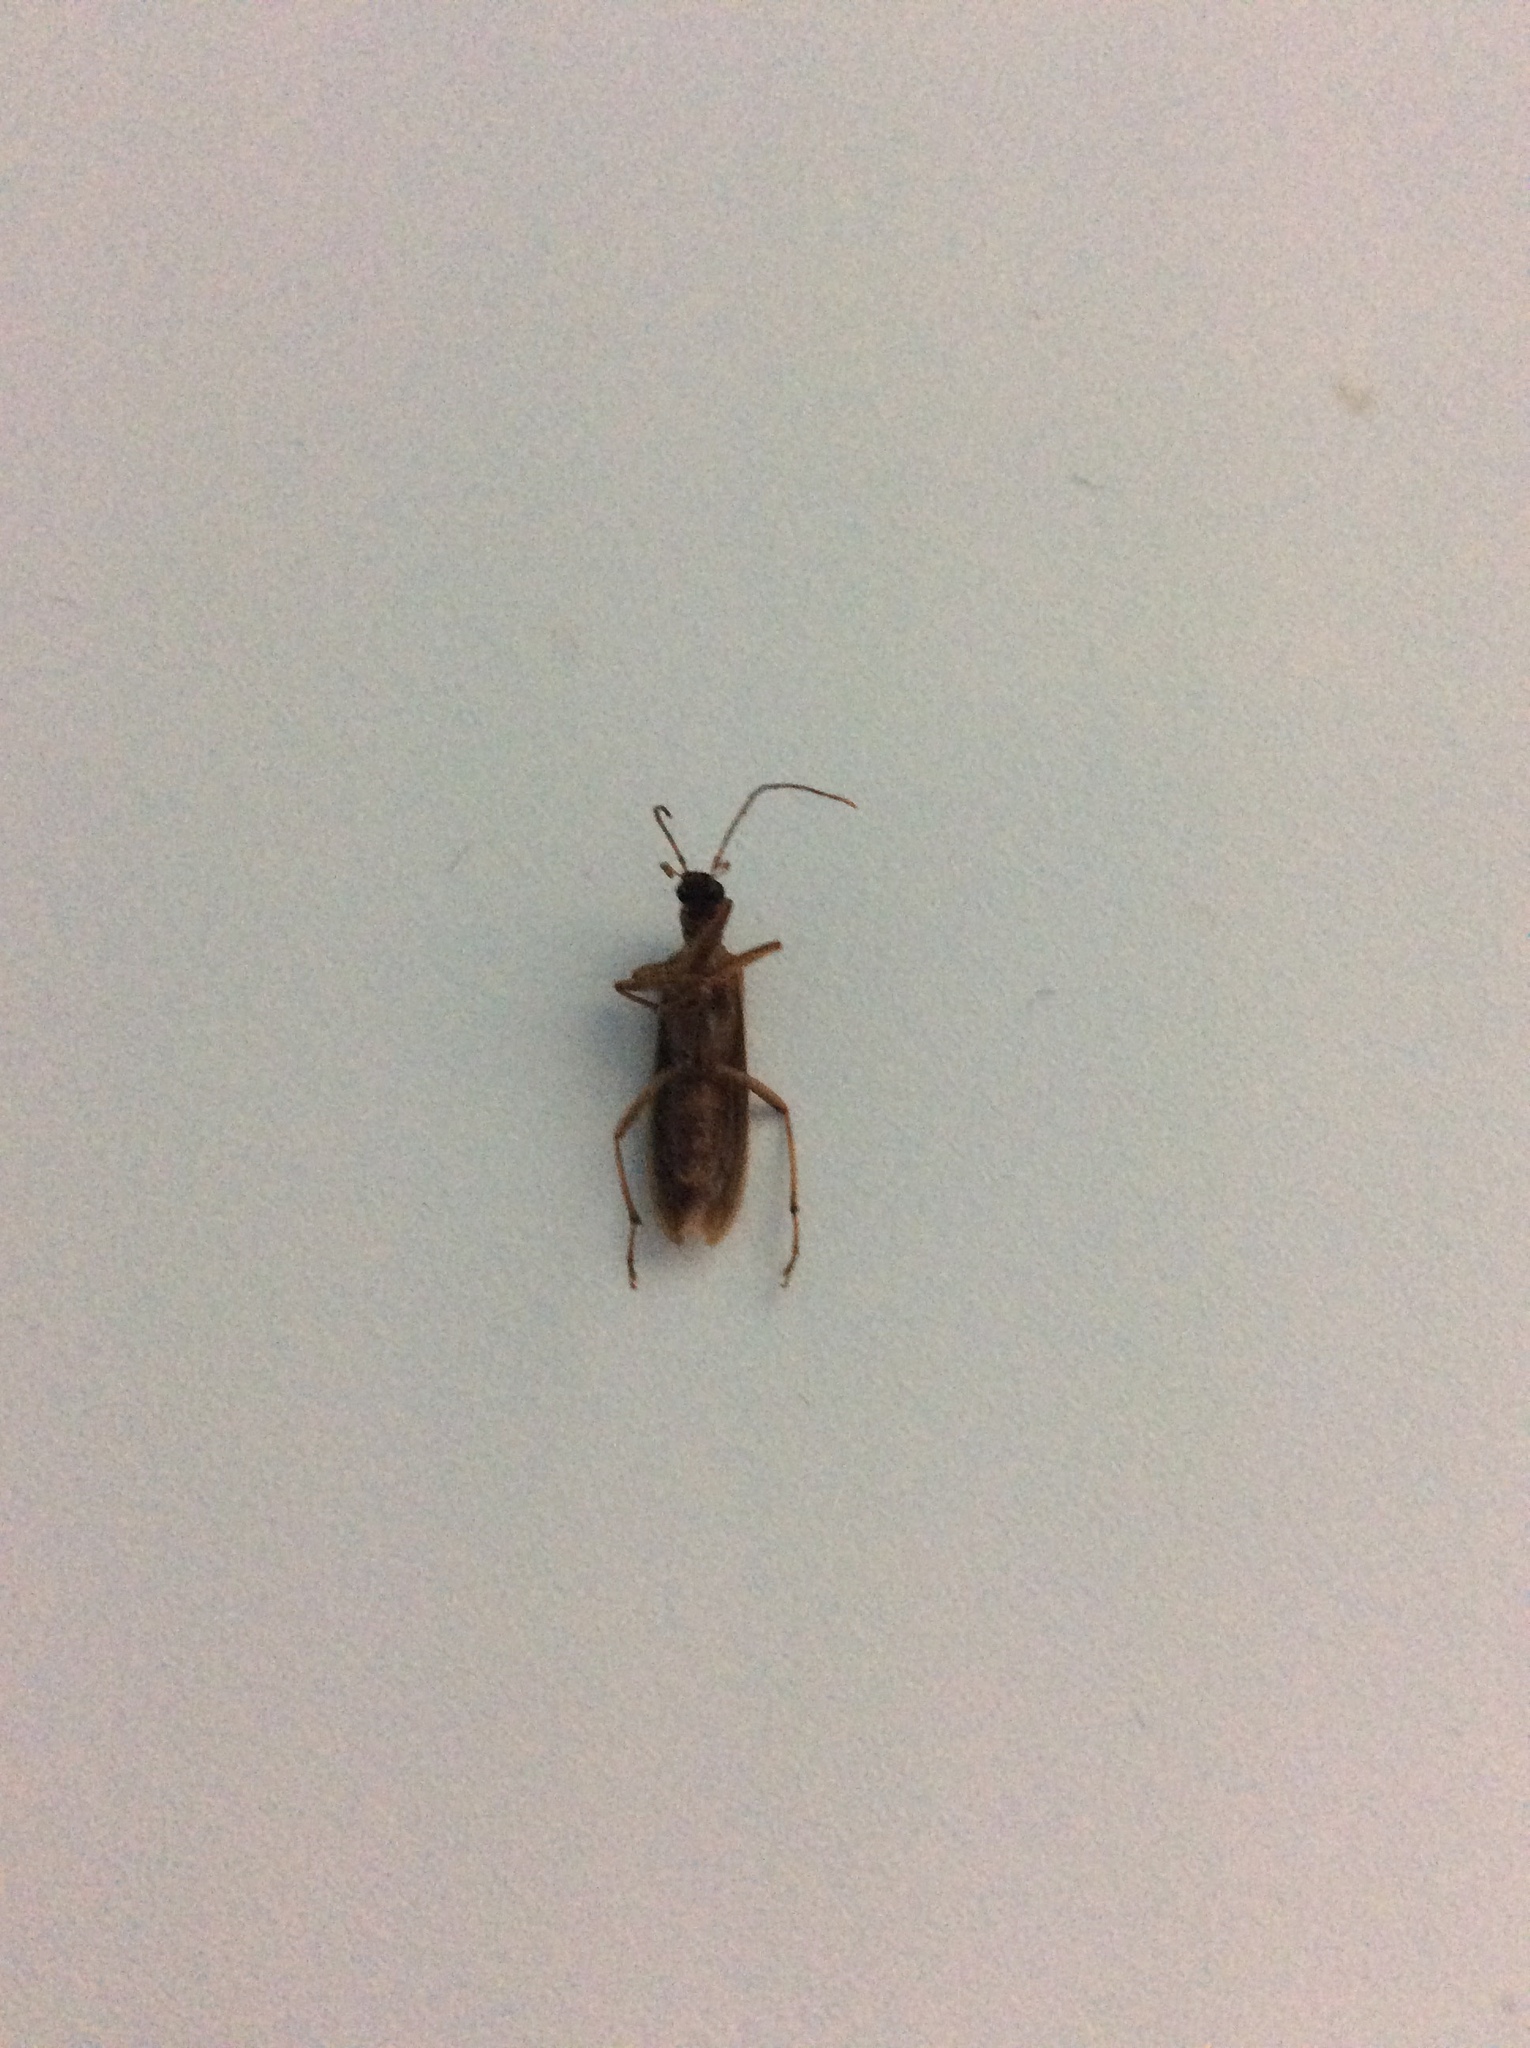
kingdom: Animalia
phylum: Arthropoda
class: Insecta
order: Coleoptera
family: Oedemeridae
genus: Thelyphassa
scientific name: Thelyphassa
